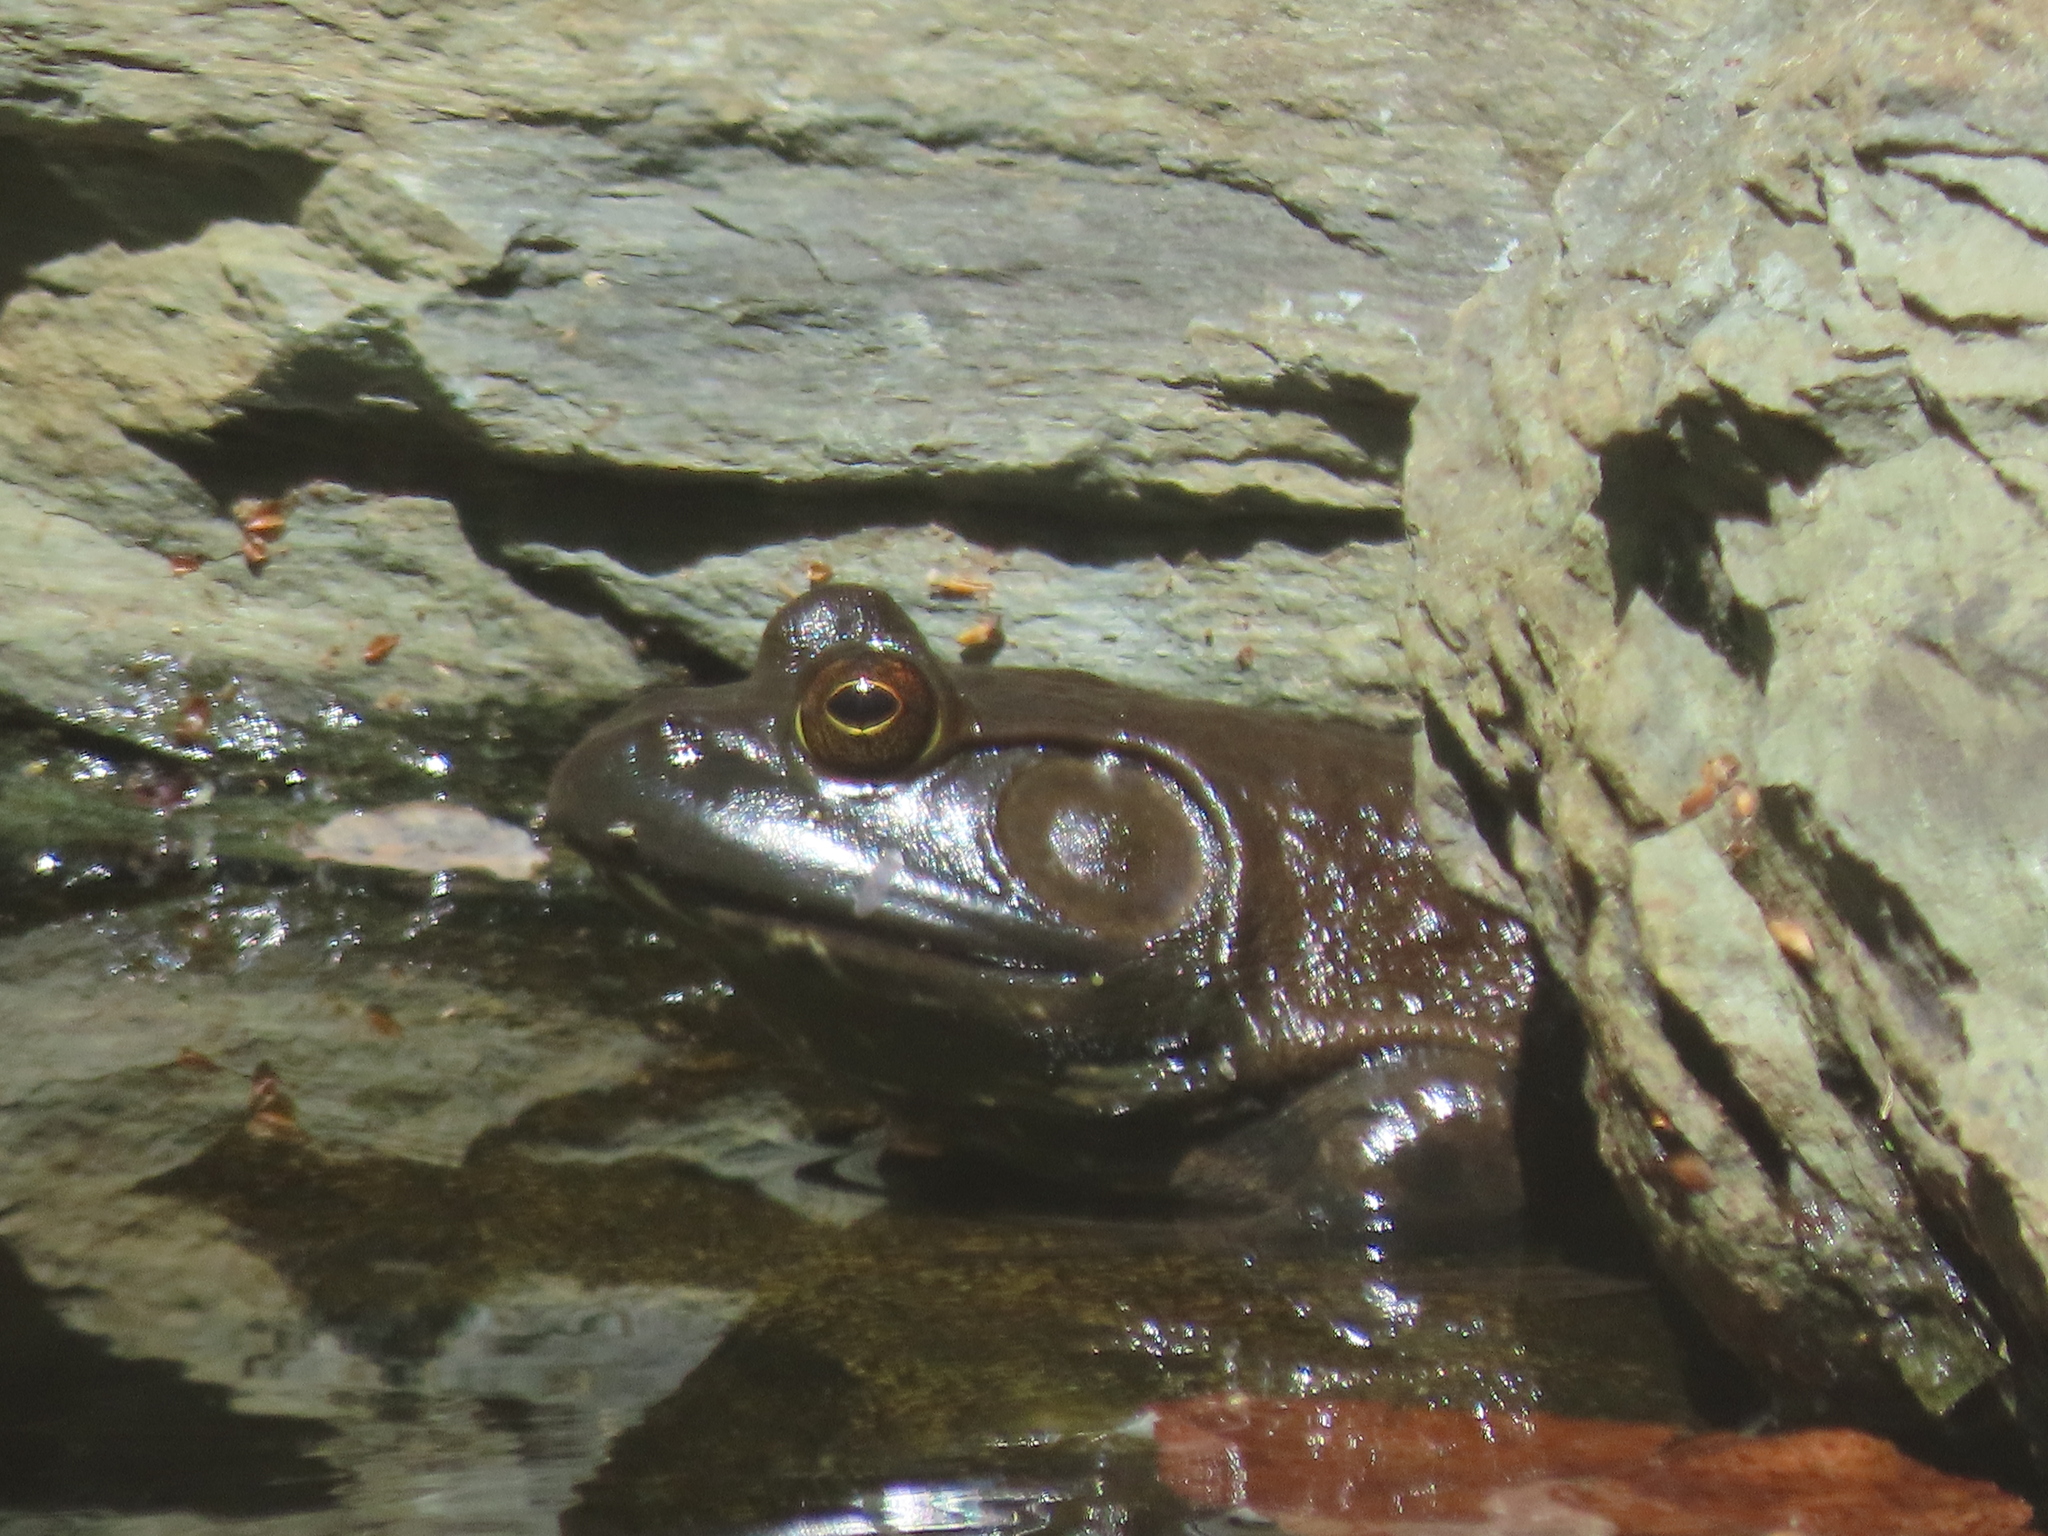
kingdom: Animalia
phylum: Chordata
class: Amphibia
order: Anura
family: Ranidae
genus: Lithobates
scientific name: Lithobates catesbeianus
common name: American bullfrog
